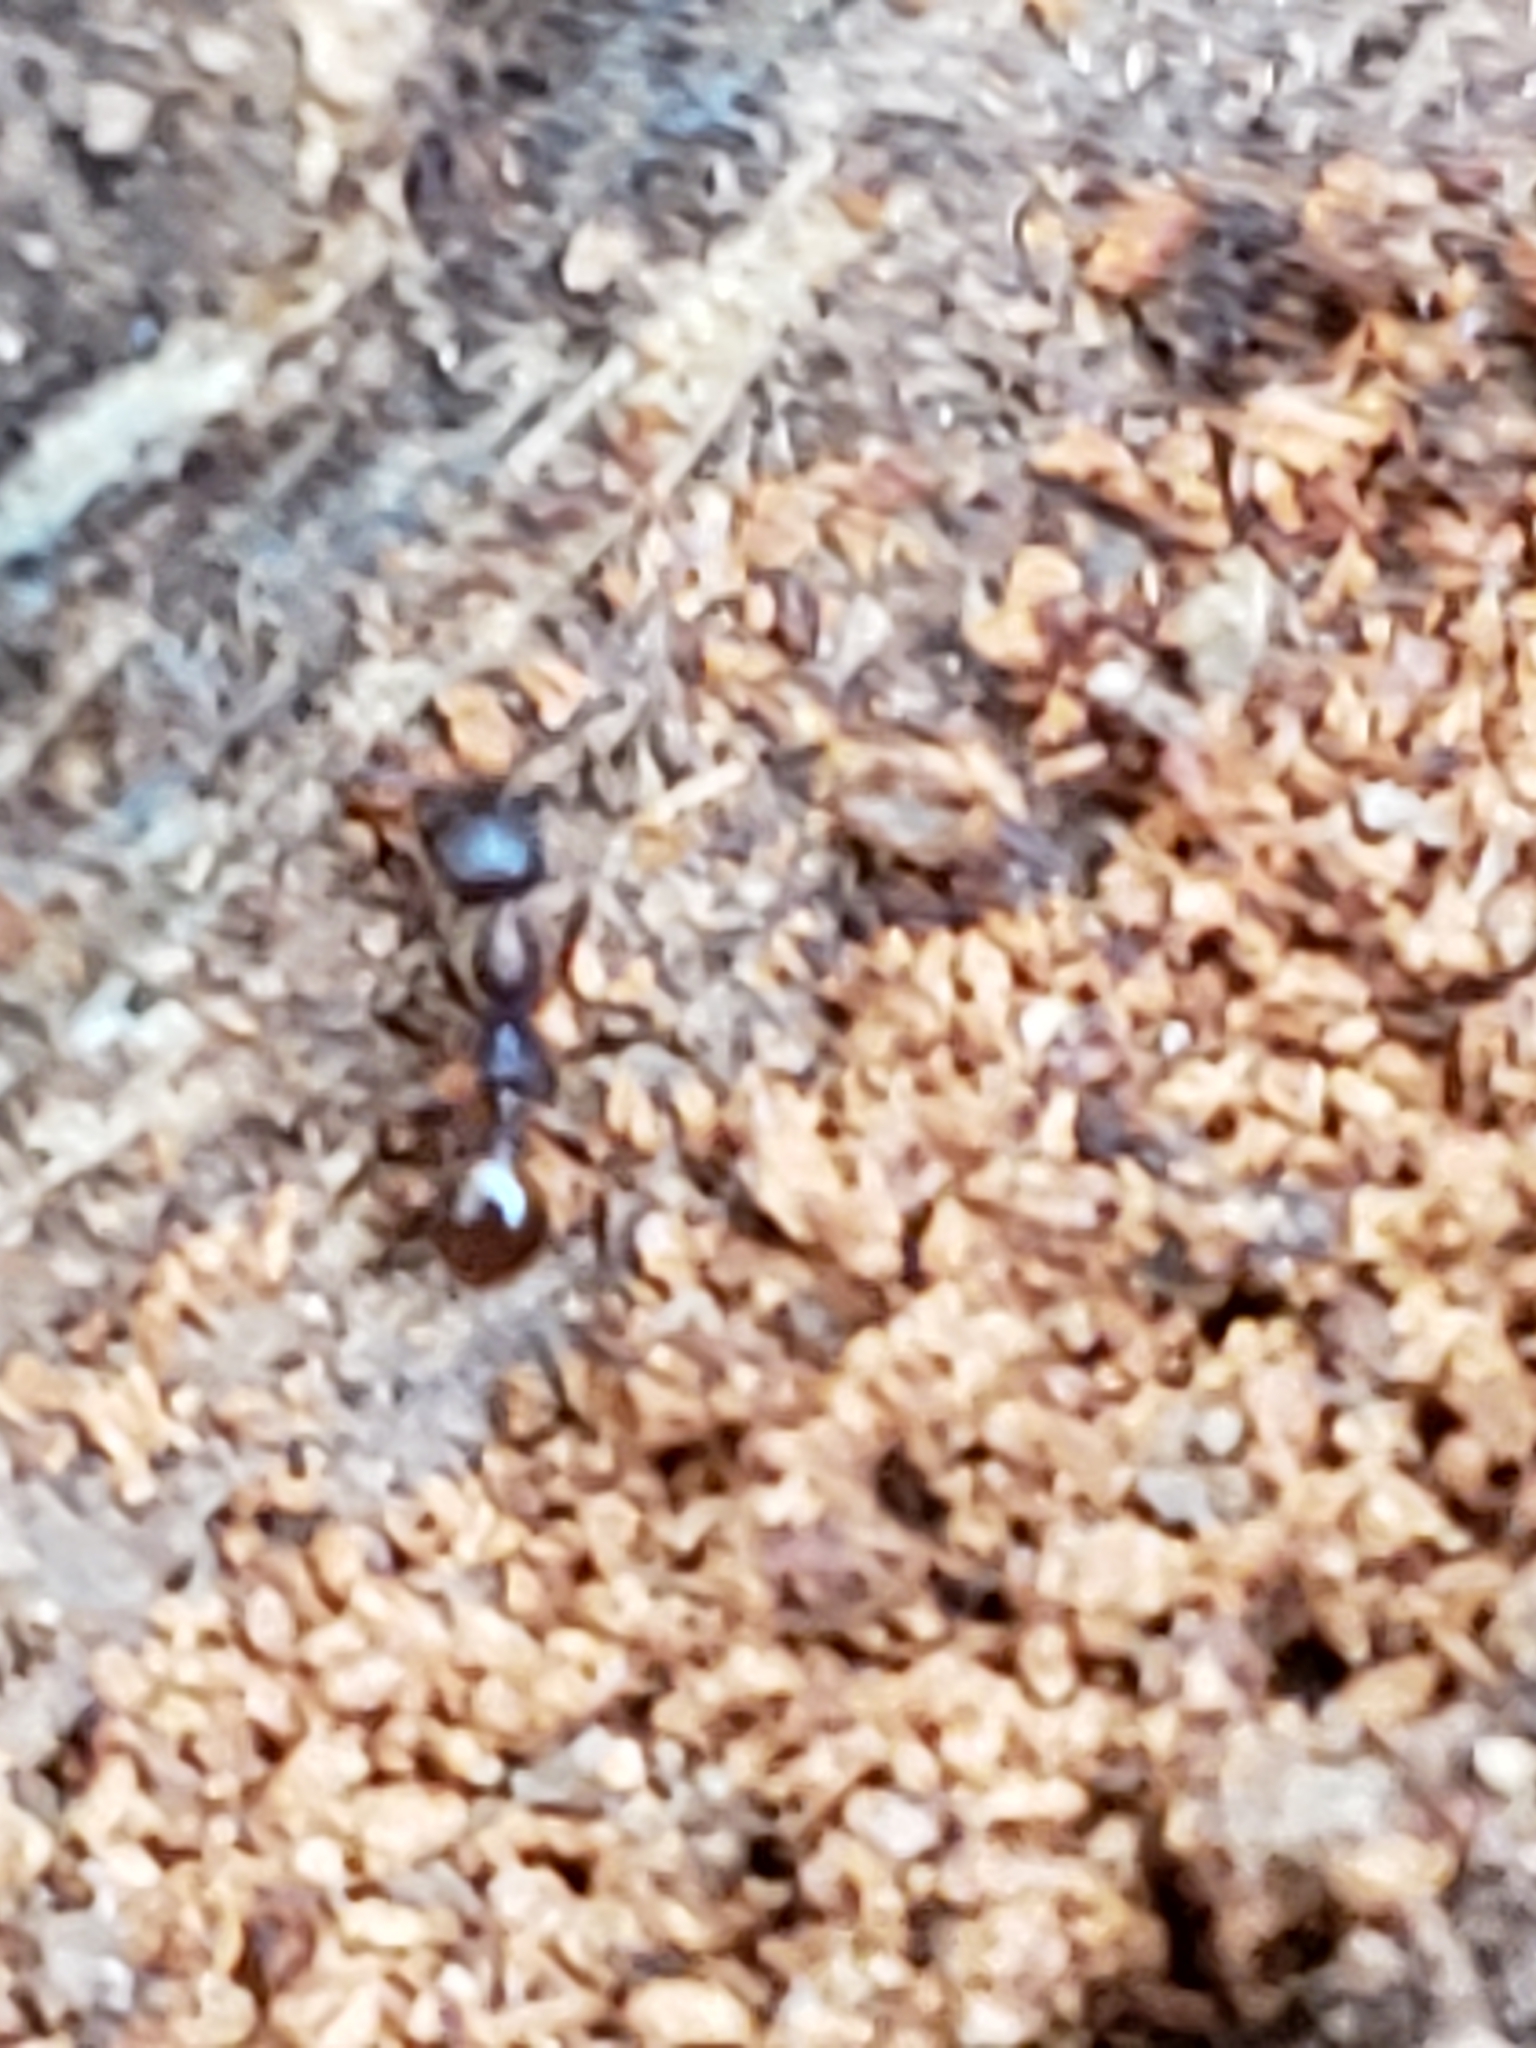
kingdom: Animalia
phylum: Arthropoda
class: Insecta
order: Hymenoptera
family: Formicidae
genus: Aphaenogaster
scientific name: Aphaenogaster fulva
